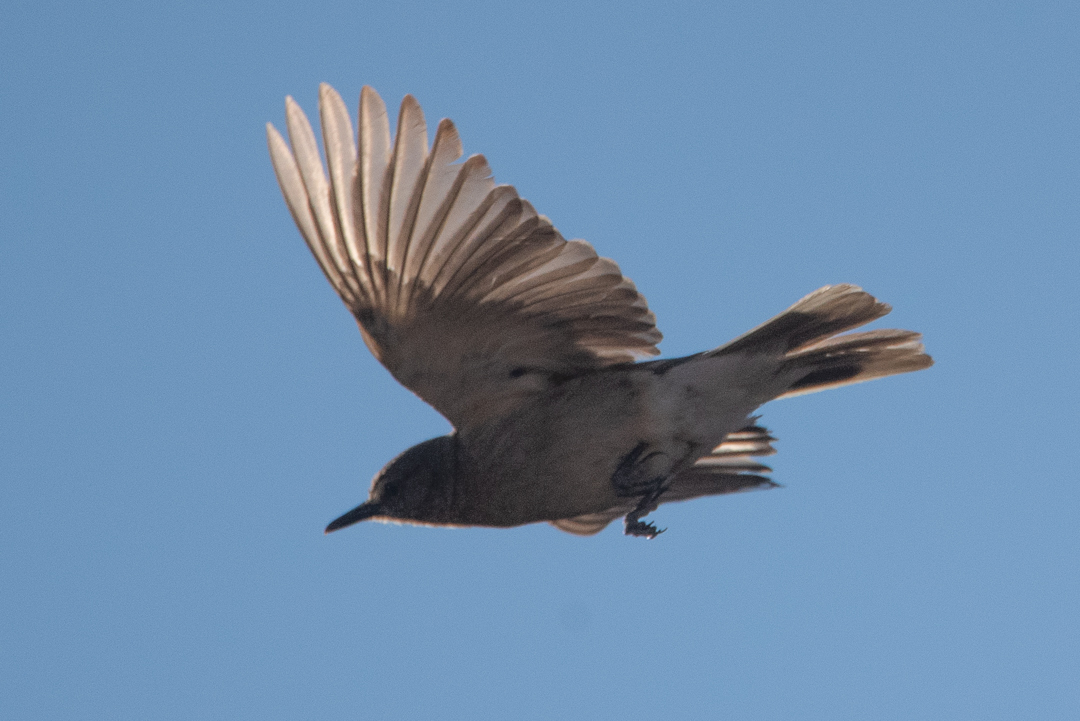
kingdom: Animalia
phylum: Chordata
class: Aves
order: Passeriformes
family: Tyrannidae
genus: Agriornis
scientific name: Agriornis montanus
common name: Black-billed shrike-tyrant
